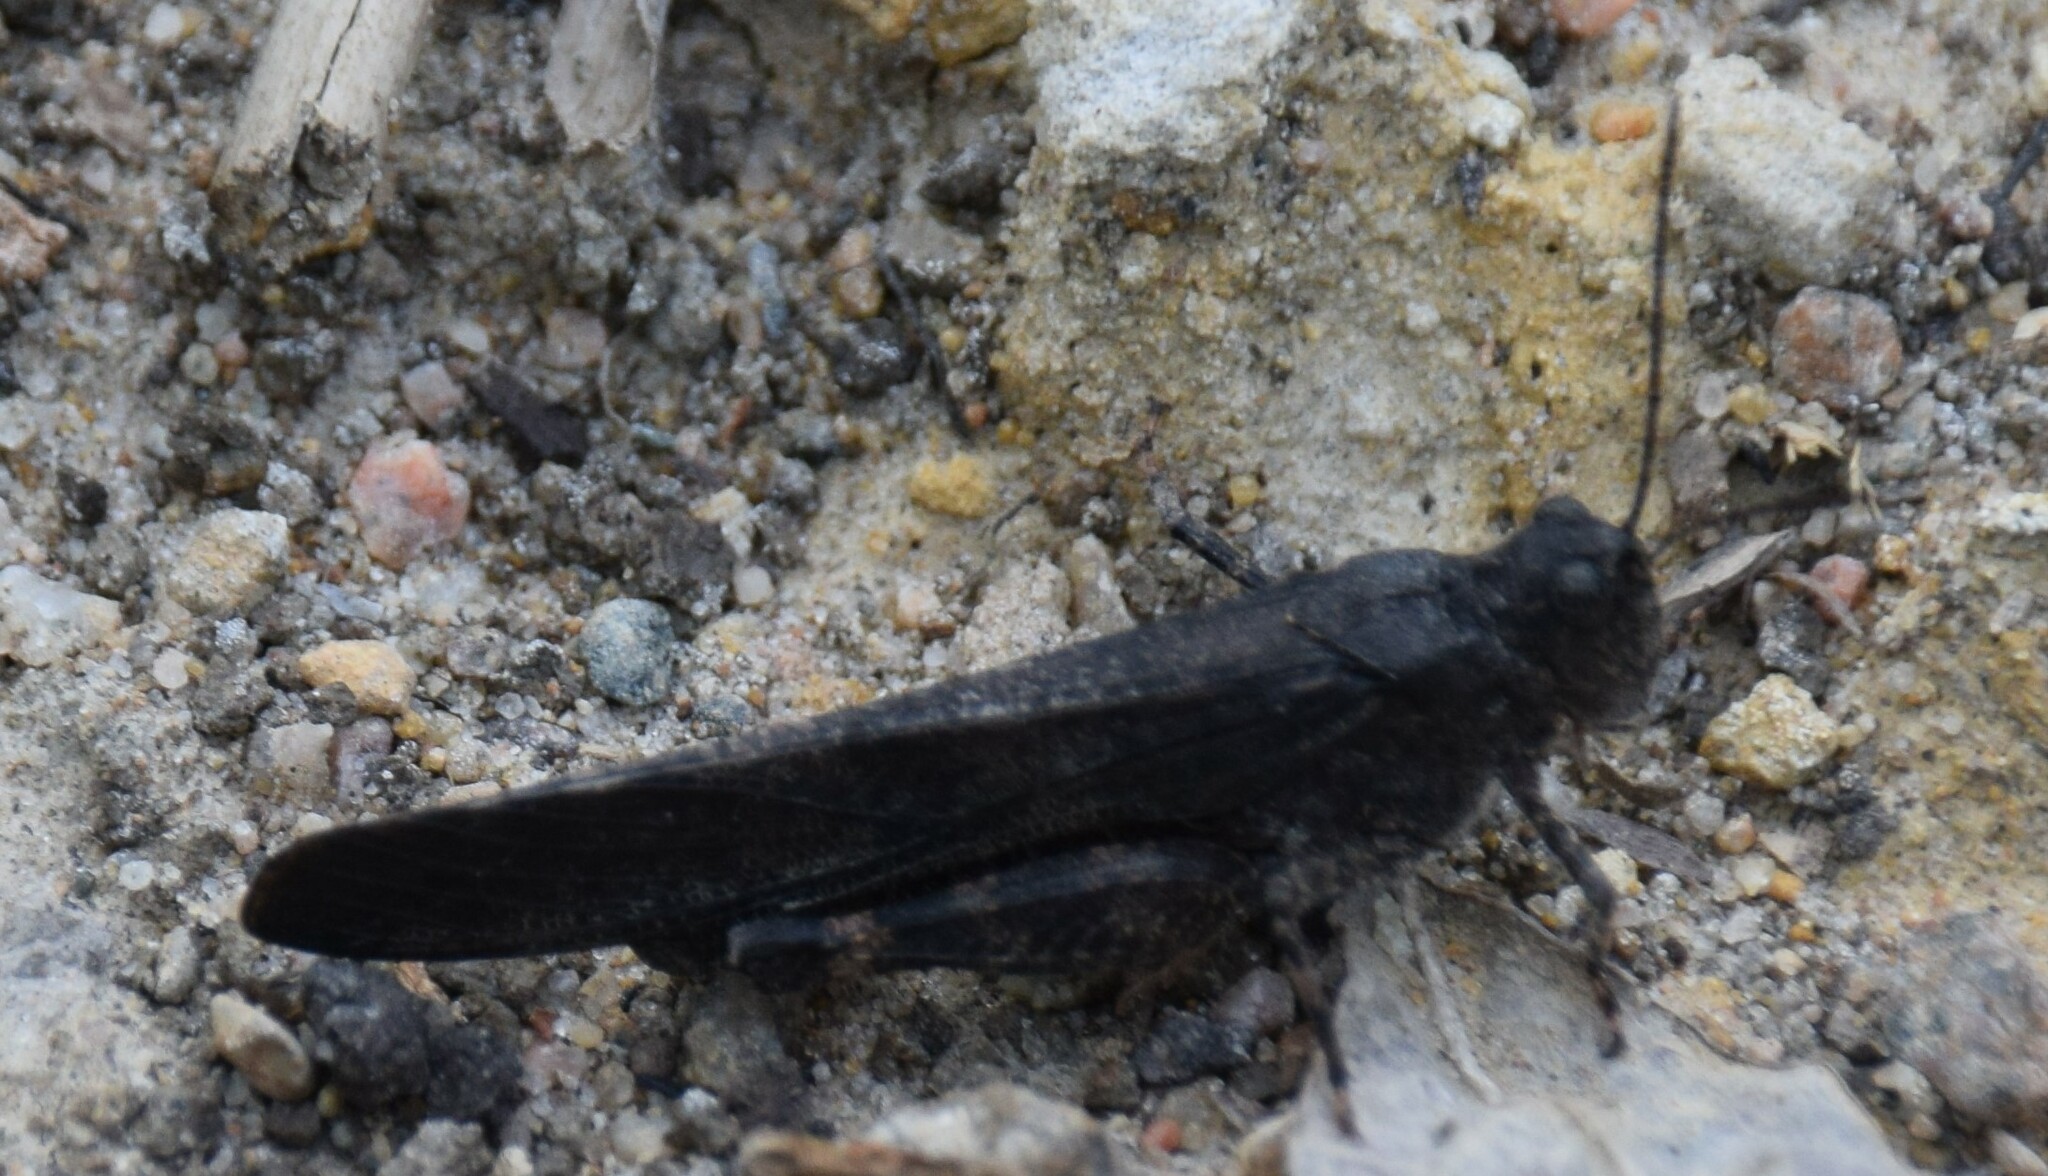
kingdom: Animalia
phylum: Arthropoda
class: Insecta
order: Orthoptera
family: Acrididae
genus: Trimerotropis
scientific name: Trimerotropis verruculata
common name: Crackling forest grasshopper
